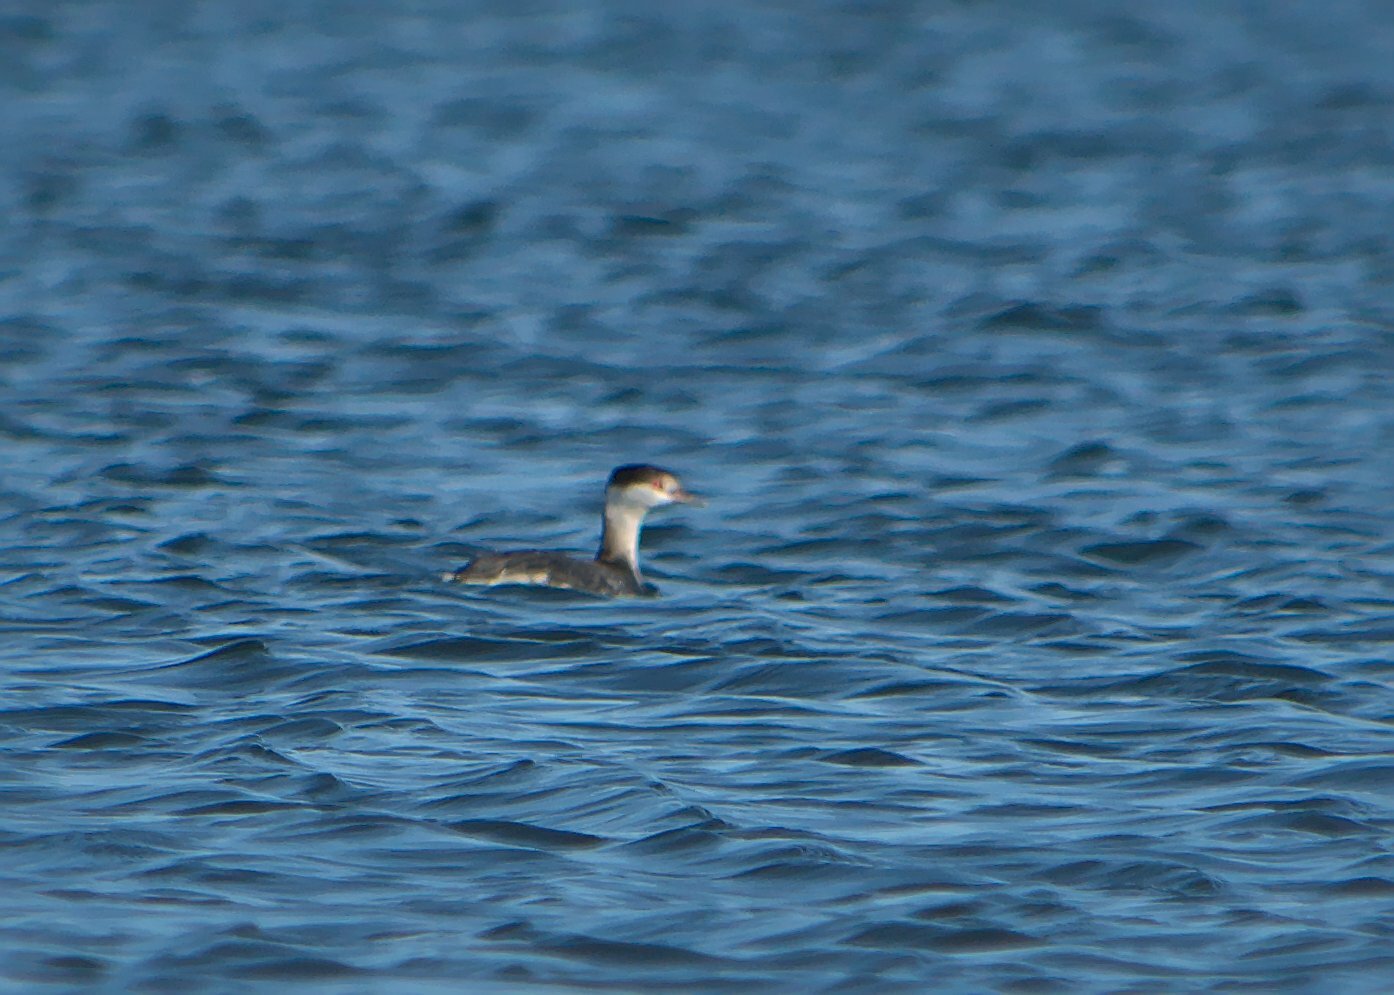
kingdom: Animalia
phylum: Chordata
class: Aves
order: Podicipediformes
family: Podicipedidae
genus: Podiceps
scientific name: Podiceps auritus
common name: Horned grebe
